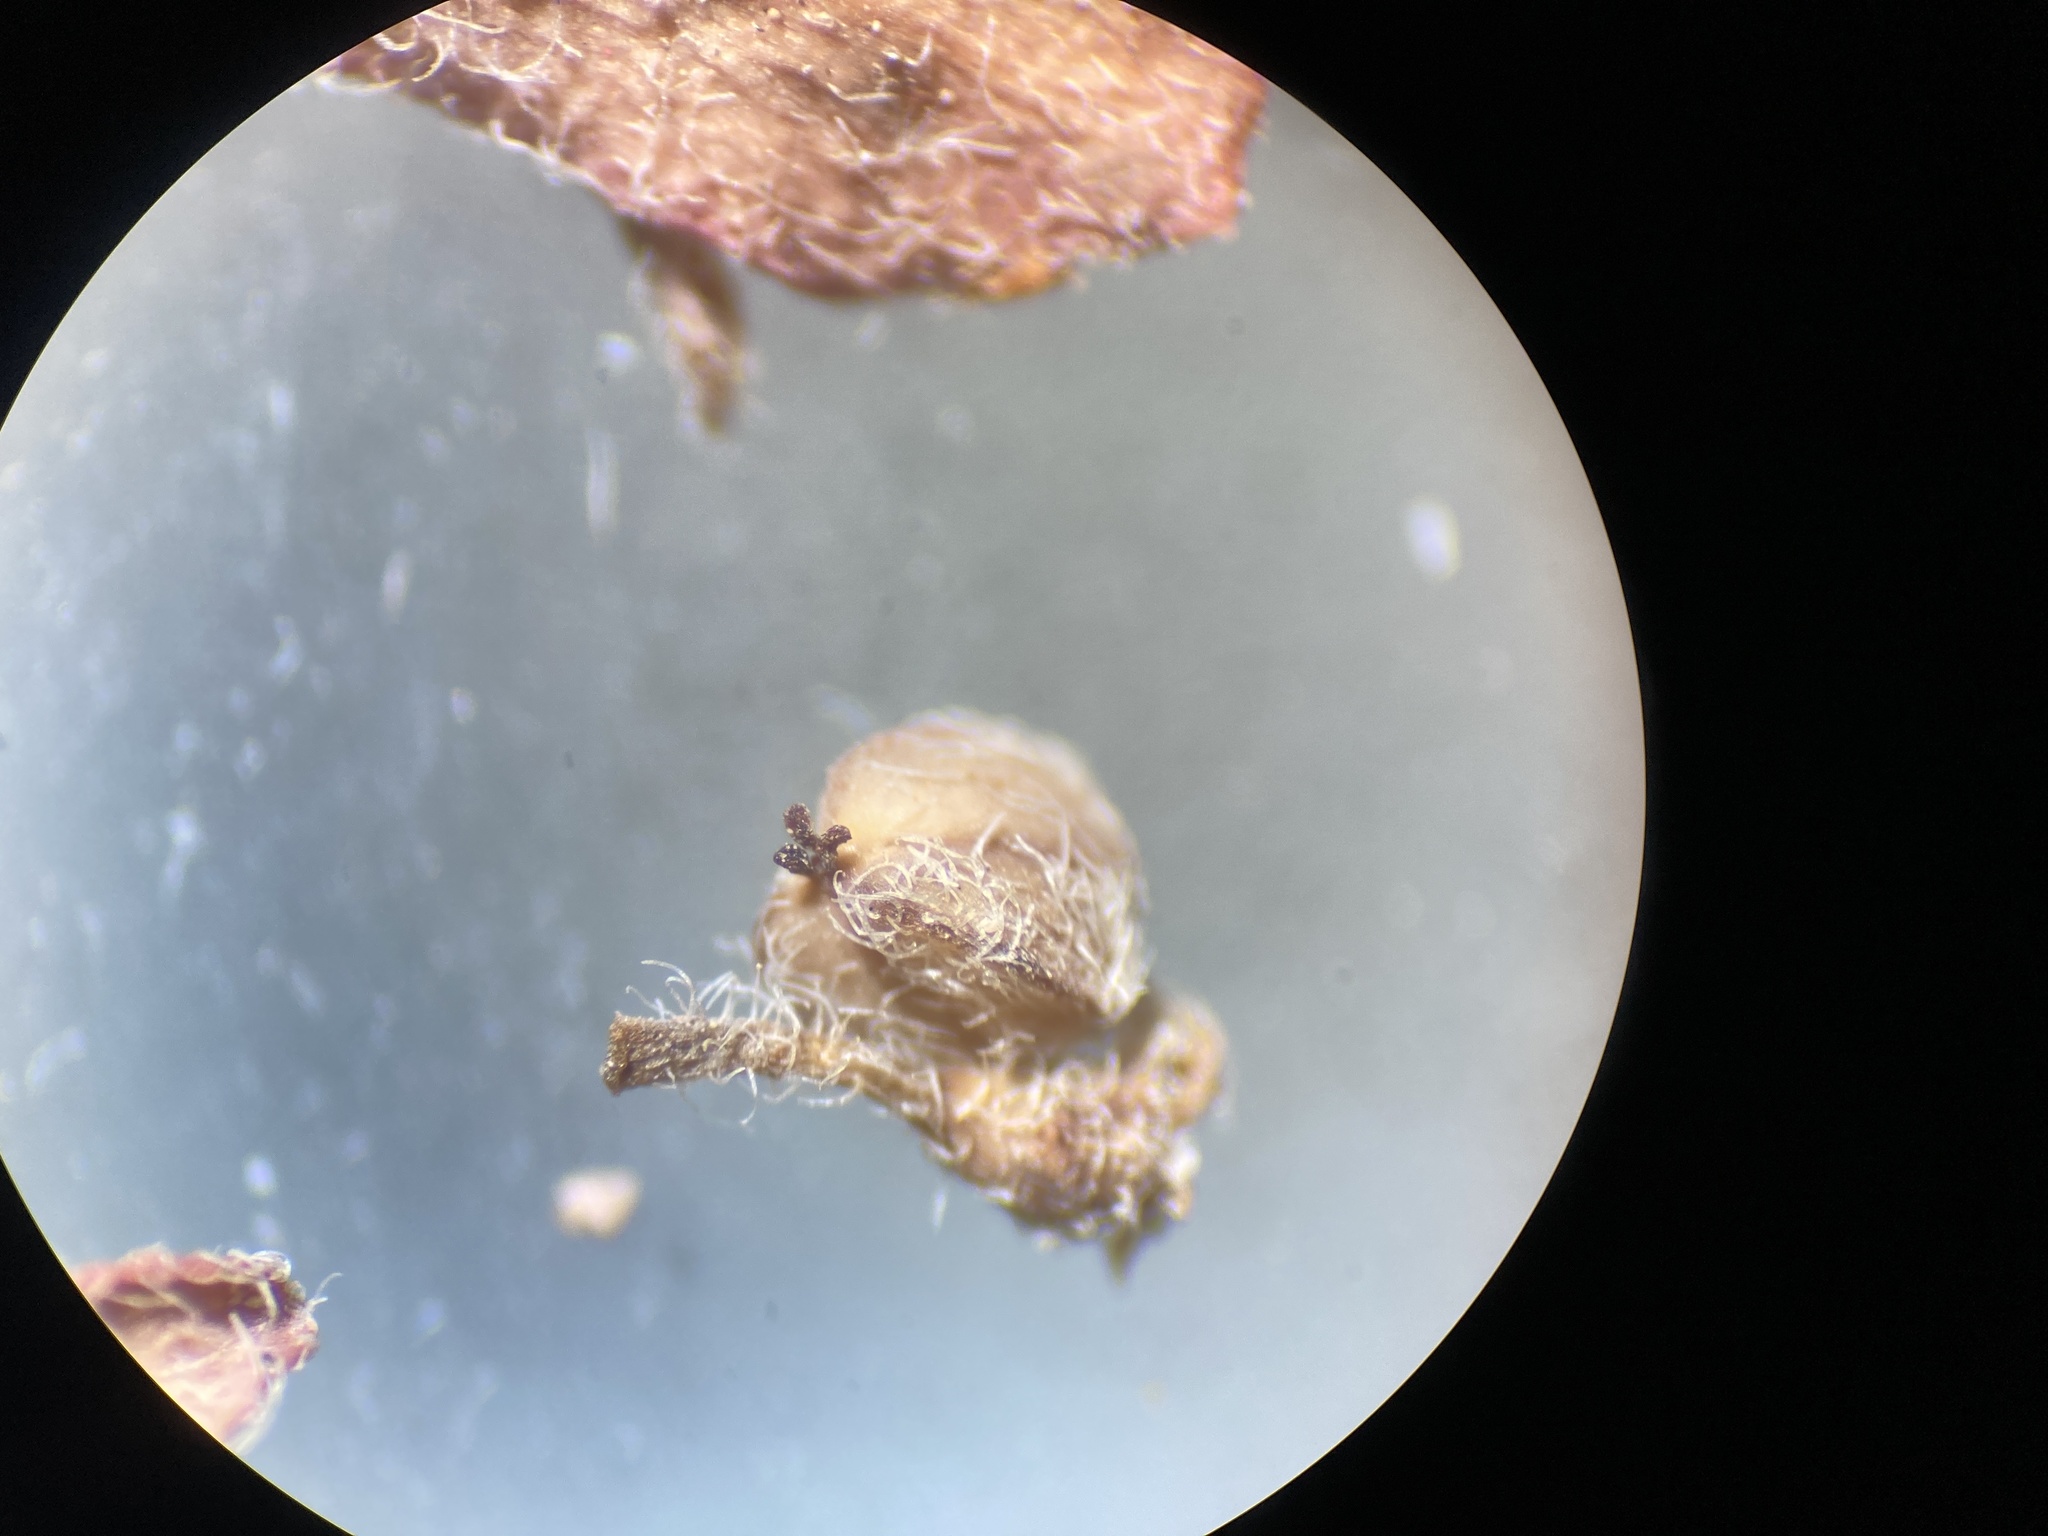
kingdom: Plantae
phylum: Tracheophyta
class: Magnoliopsida
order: Malpighiales
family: Euphorbiaceae
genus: Euphorbia
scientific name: Euphorbia stictospora
